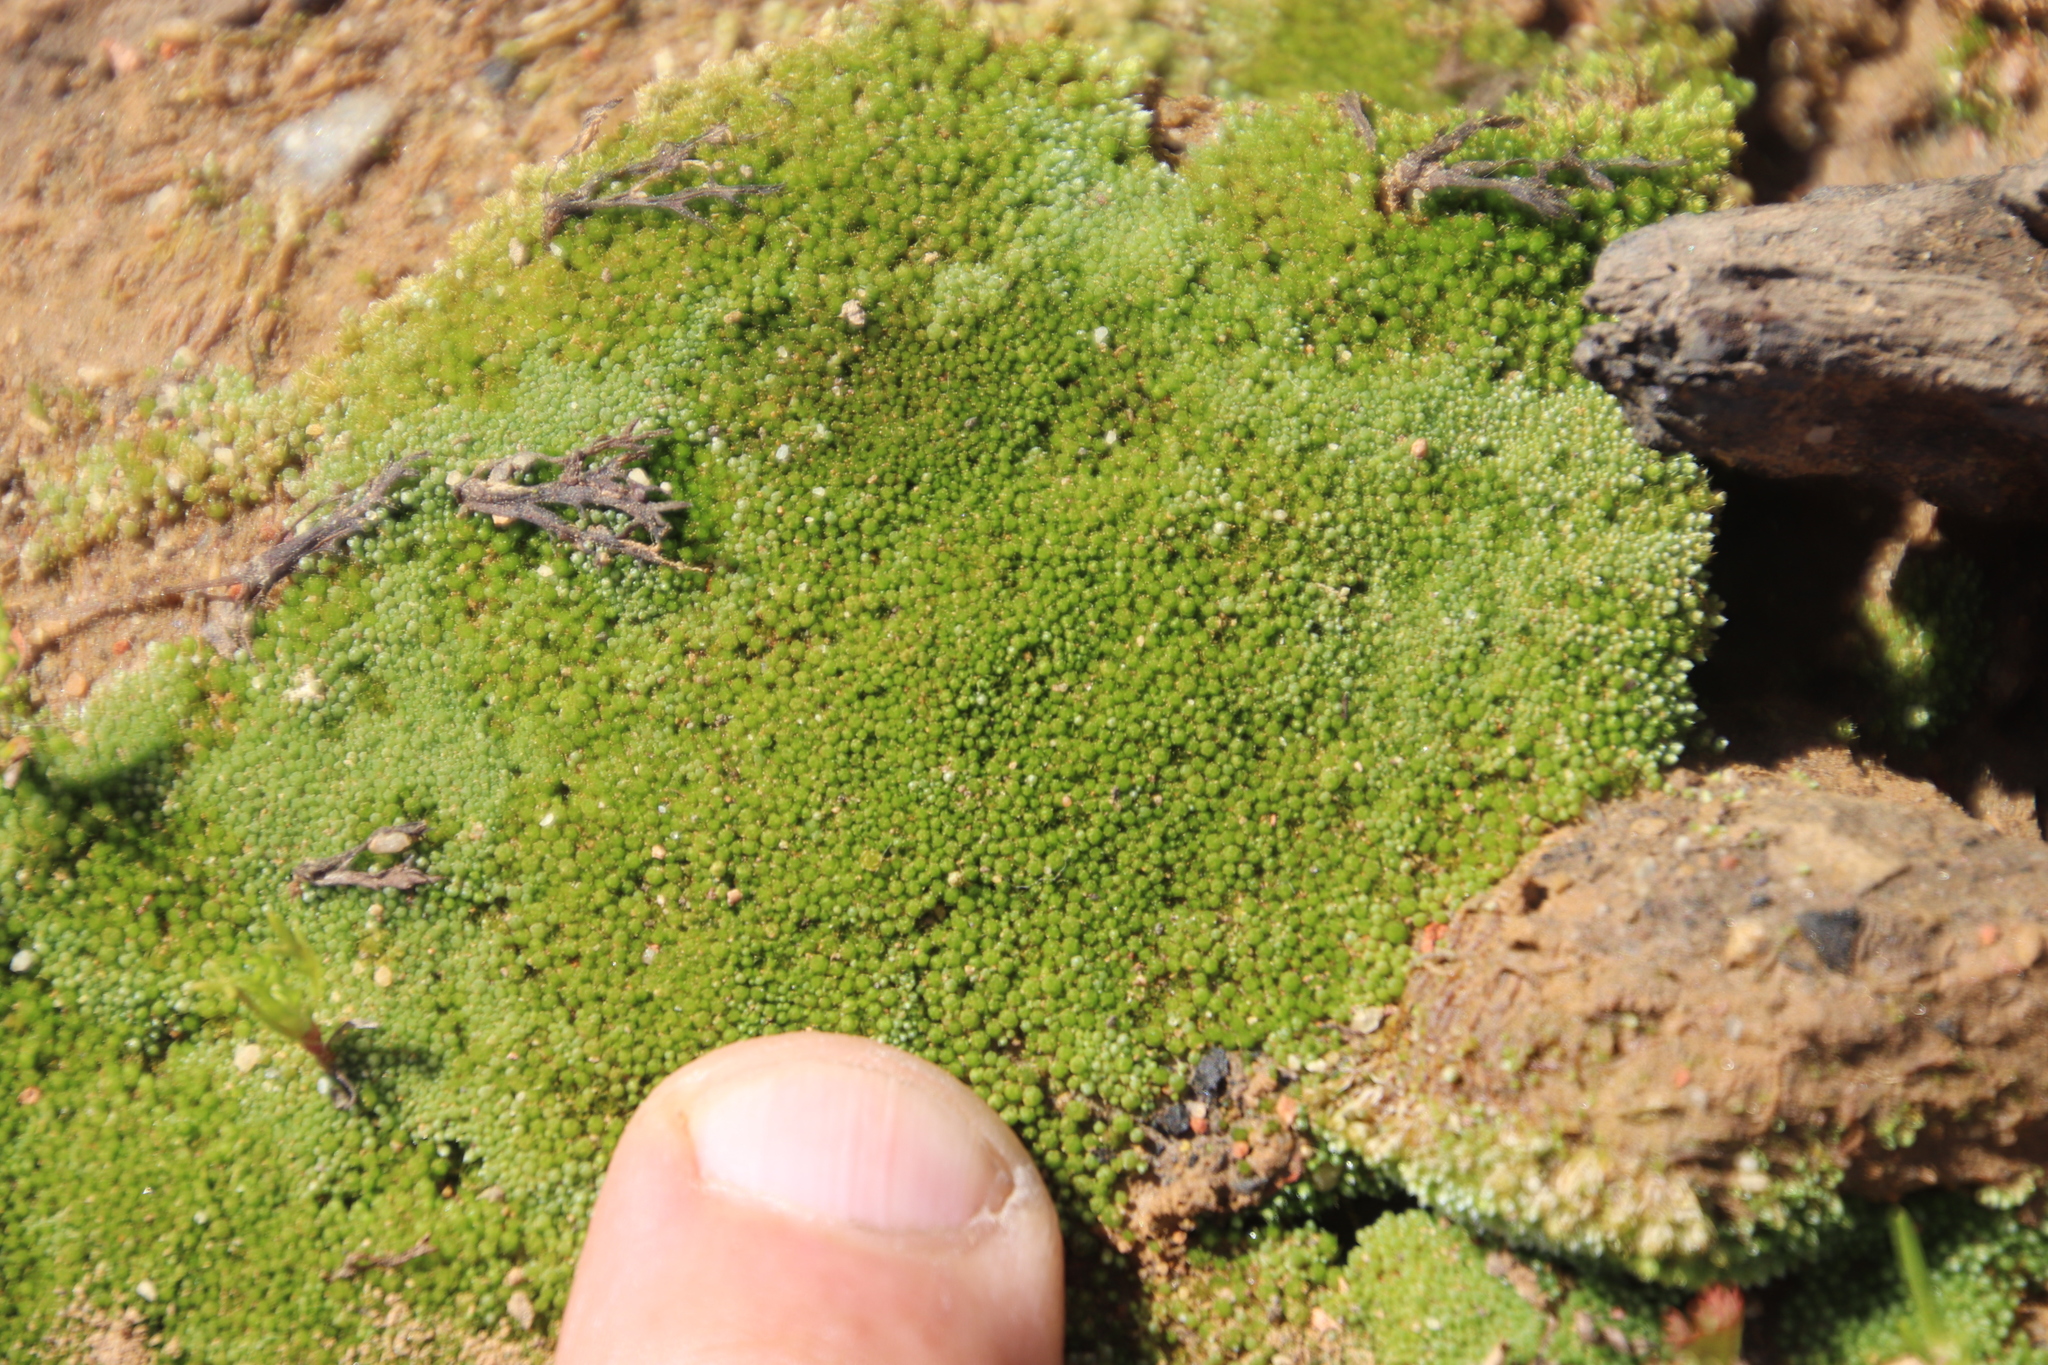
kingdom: Plantae
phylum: Bryophyta
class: Bryopsida
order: Bryales
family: Bryaceae
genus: Bryum
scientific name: Bryum argenteum
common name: Silver-moss
